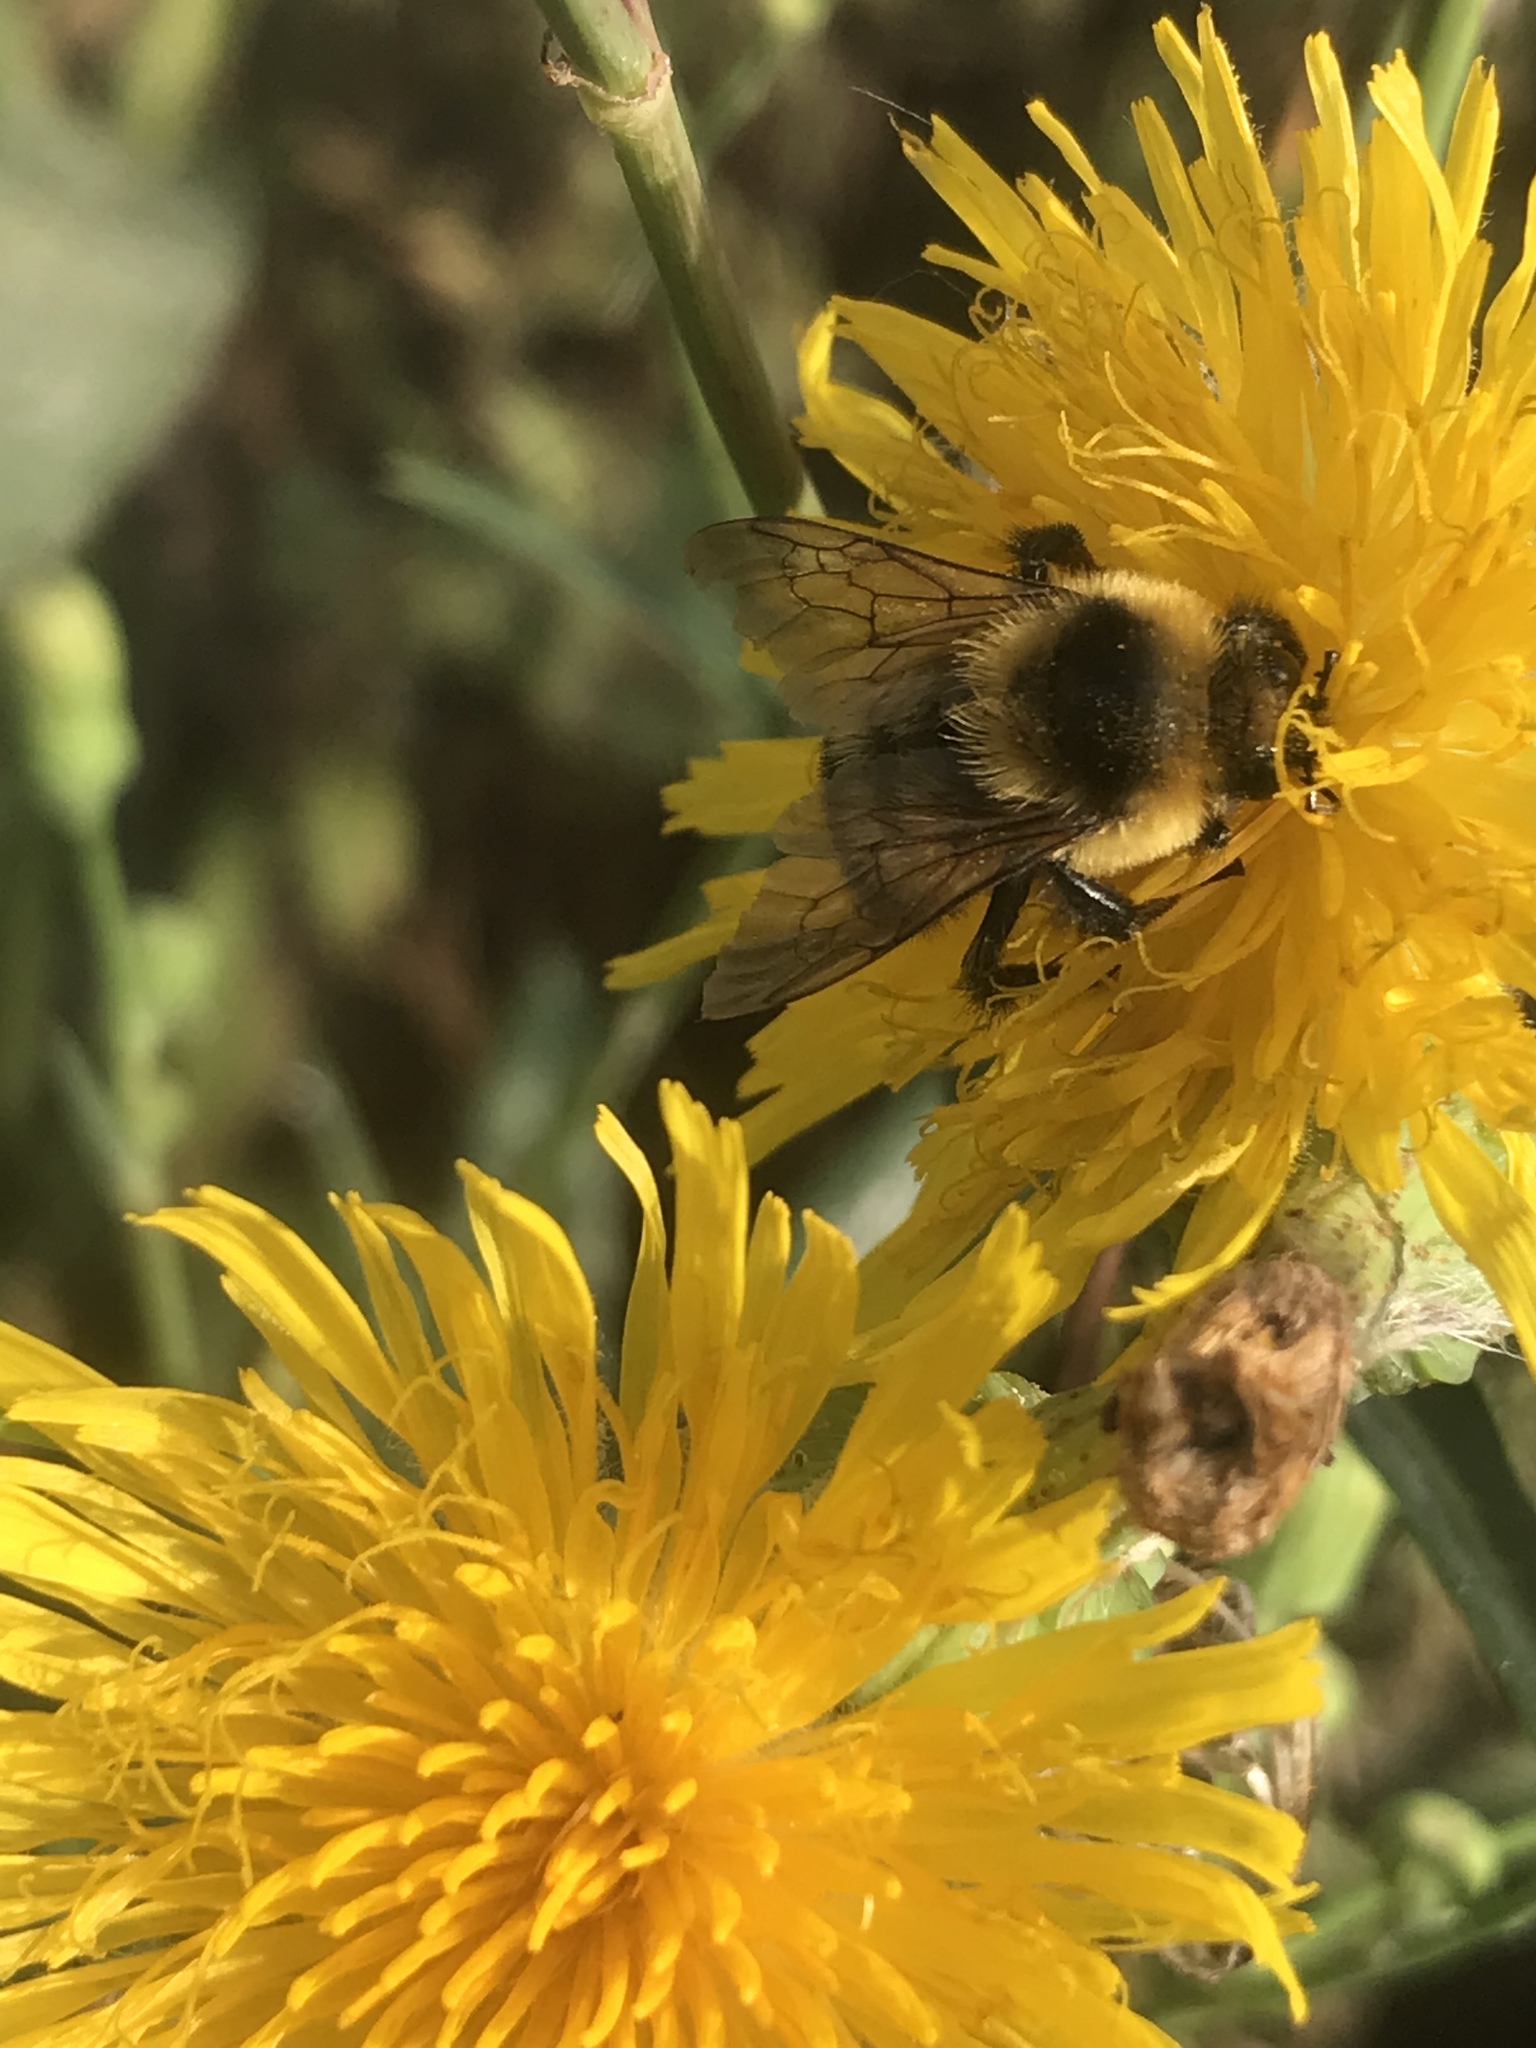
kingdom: Animalia
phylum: Arthropoda
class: Insecta
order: Hymenoptera
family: Apidae
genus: Bombus
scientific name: Bombus rufocinctus
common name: Red-belted bumble bee
